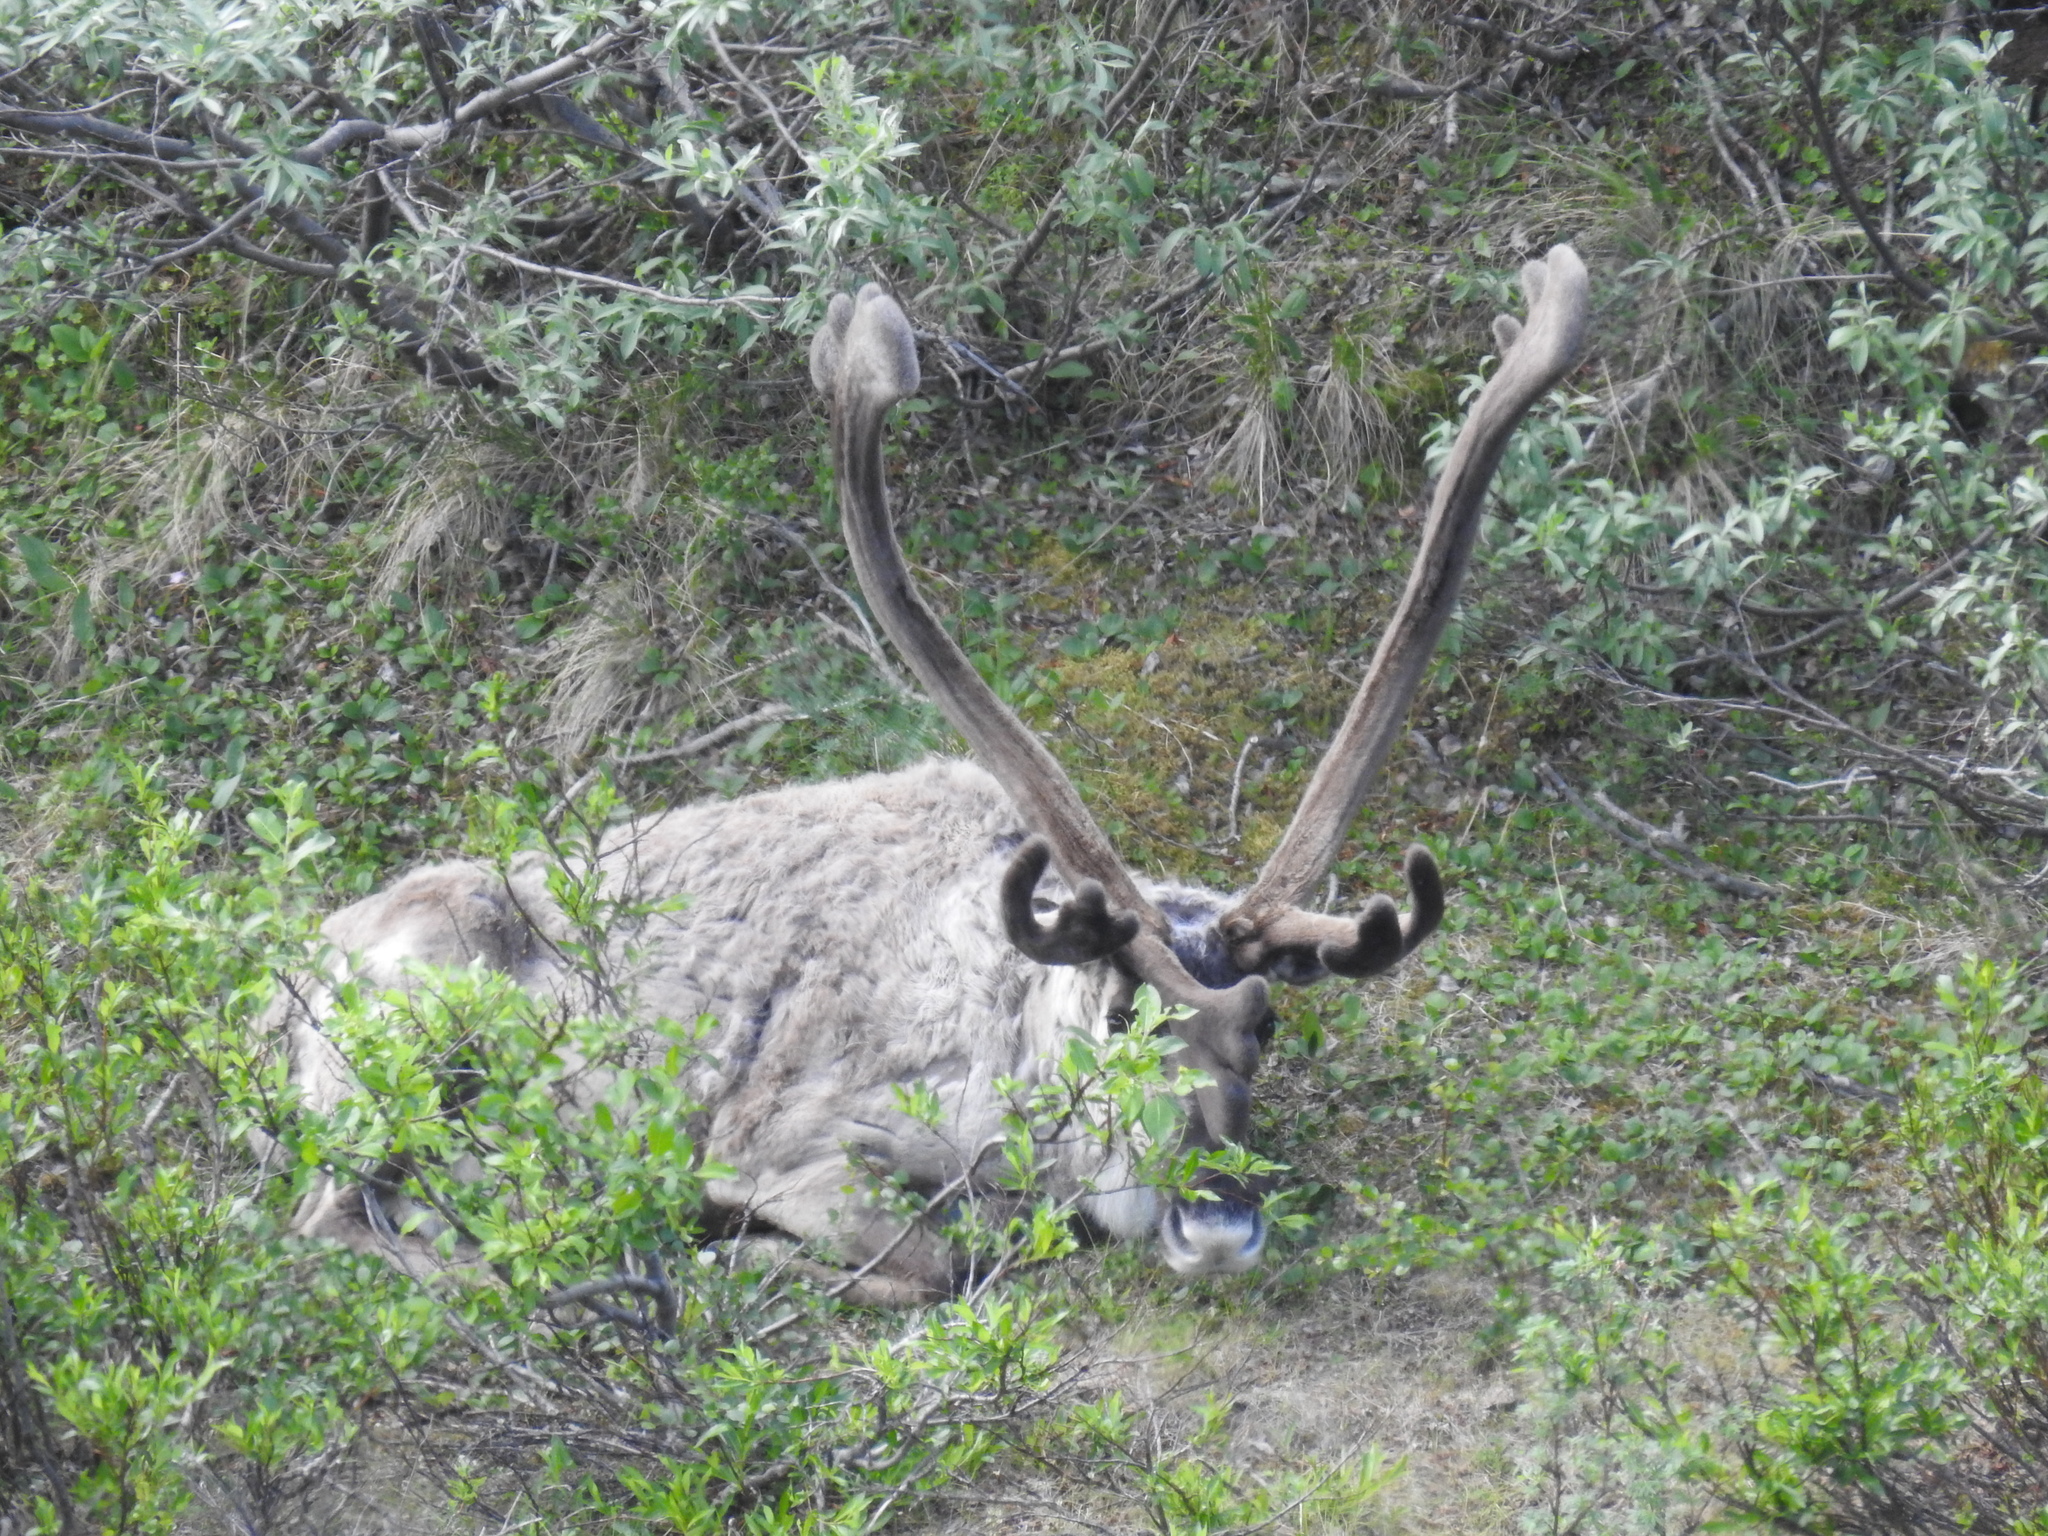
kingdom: Animalia
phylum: Chordata
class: Mammalia
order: Artiodactyla
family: Cervidae
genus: Rangifer
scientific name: Rangifer tarandus
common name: Reindeer
